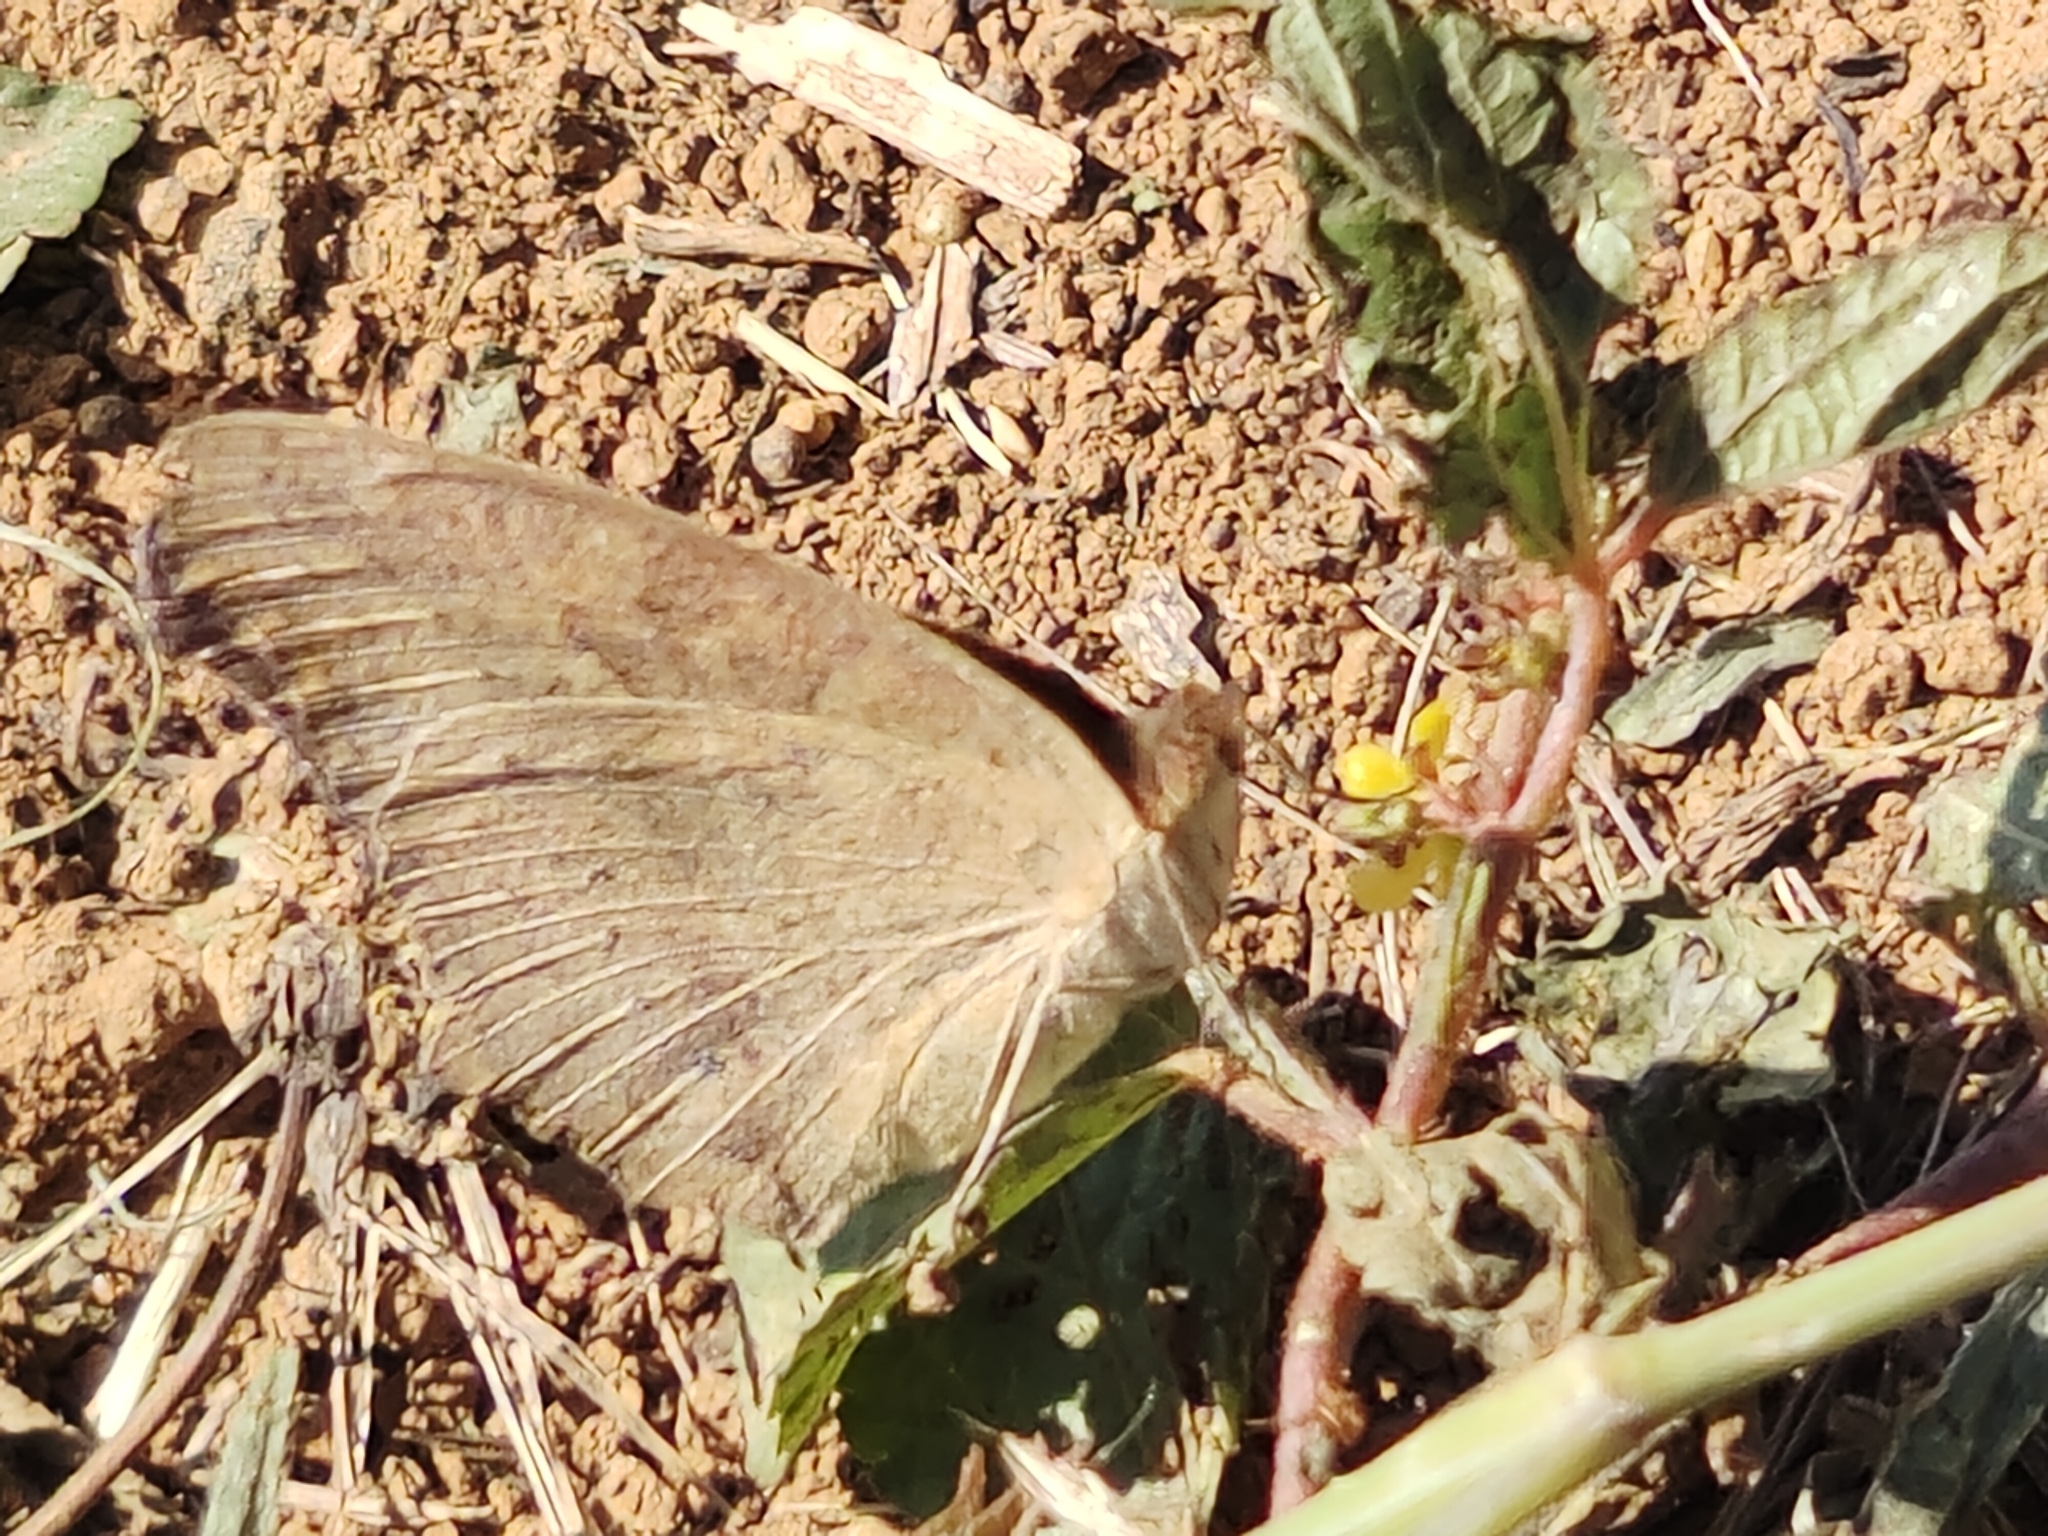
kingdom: Animalia
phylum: Arthropoda
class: Insecta
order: Lepidoptera
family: Nymphalidae
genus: Junonia
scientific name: Junonia lemonias
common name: Lemon pansy
